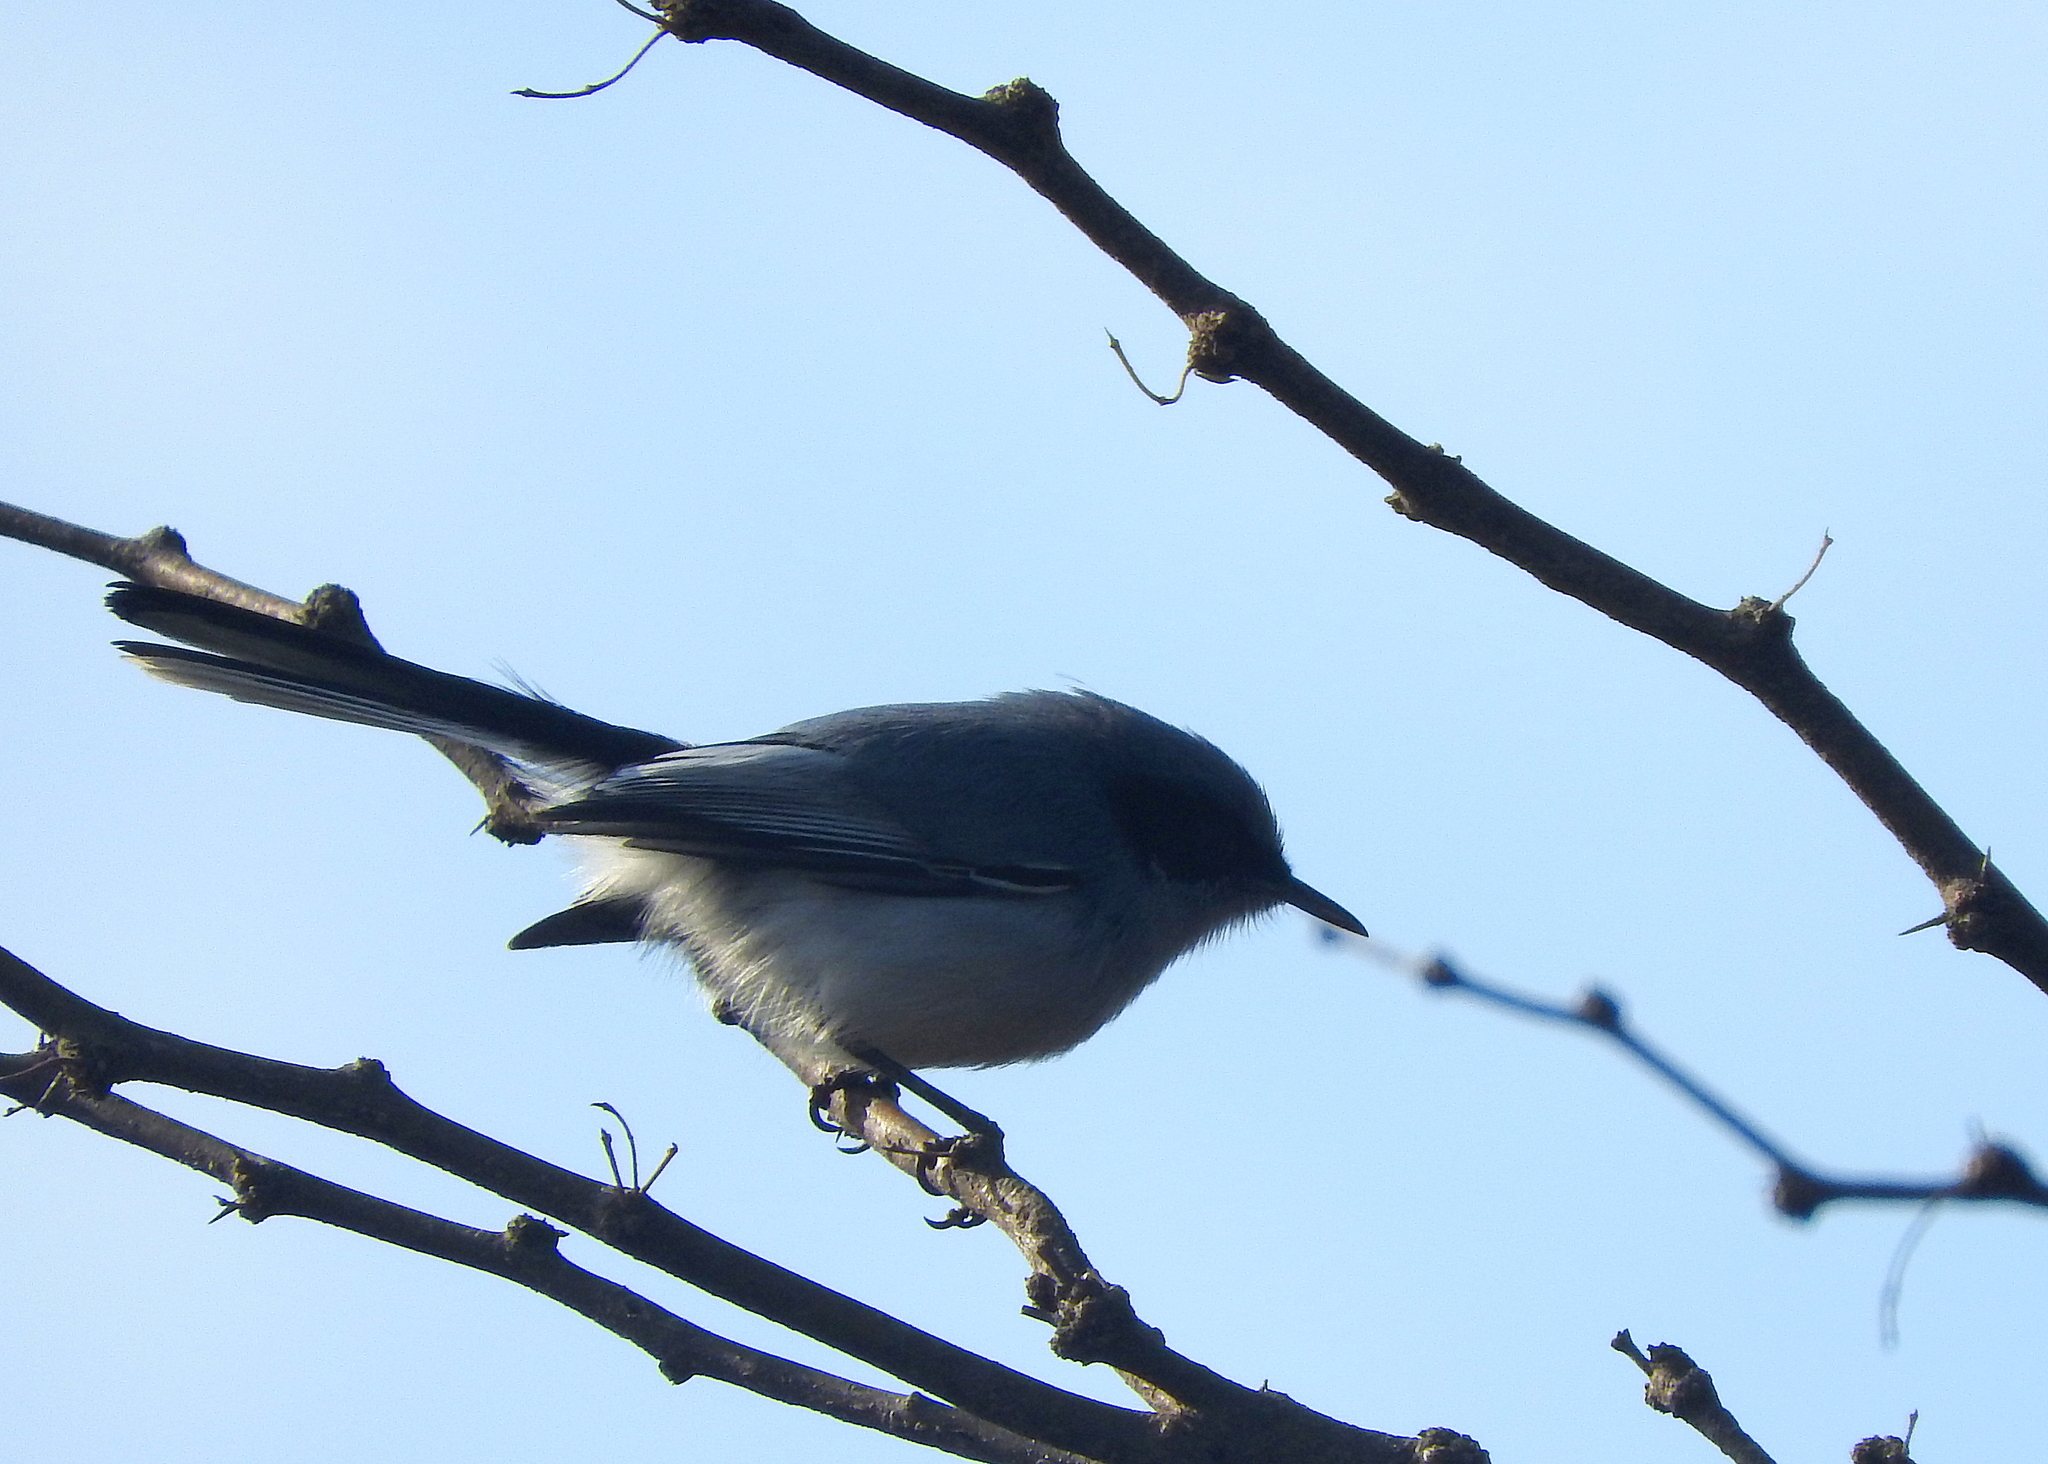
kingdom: Animalia
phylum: Chordata
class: Aves
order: Passeriformes
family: Polioptilidae
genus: Polioptila
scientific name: Polioptila dumicola
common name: Masked gnatcatcher
